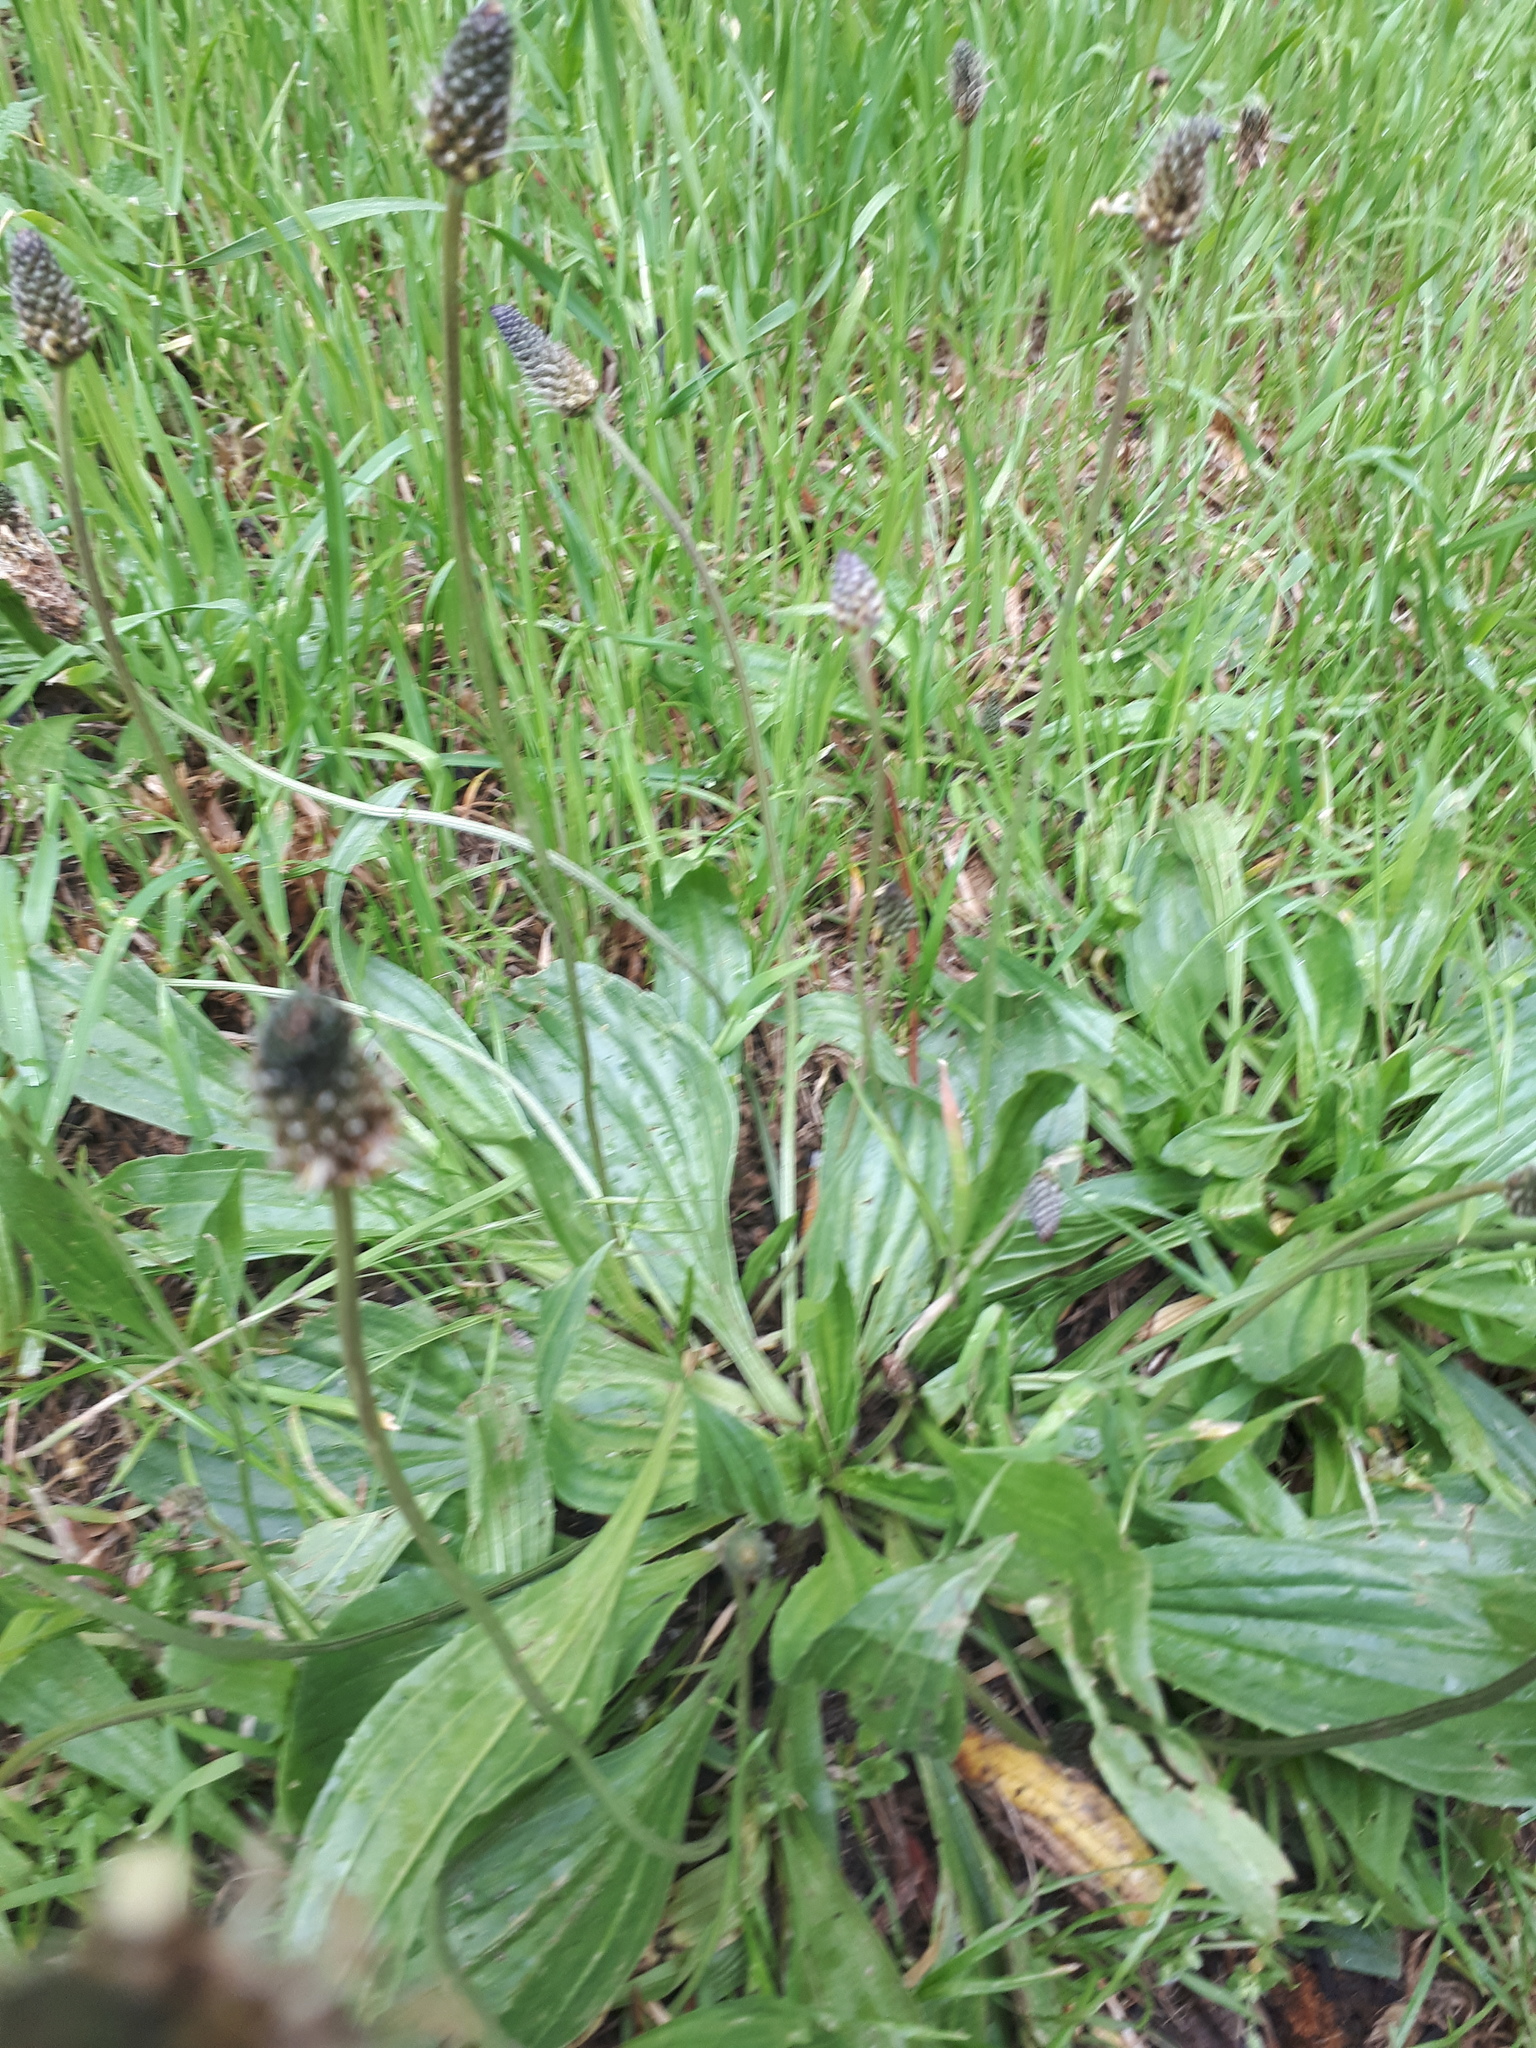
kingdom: Plantae
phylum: Tracheophyta
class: Magnoliopsida
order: Lamiales
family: Plantaginaceae
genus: Plantago
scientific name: Plantago lanceolata
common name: Ribwort plantain
